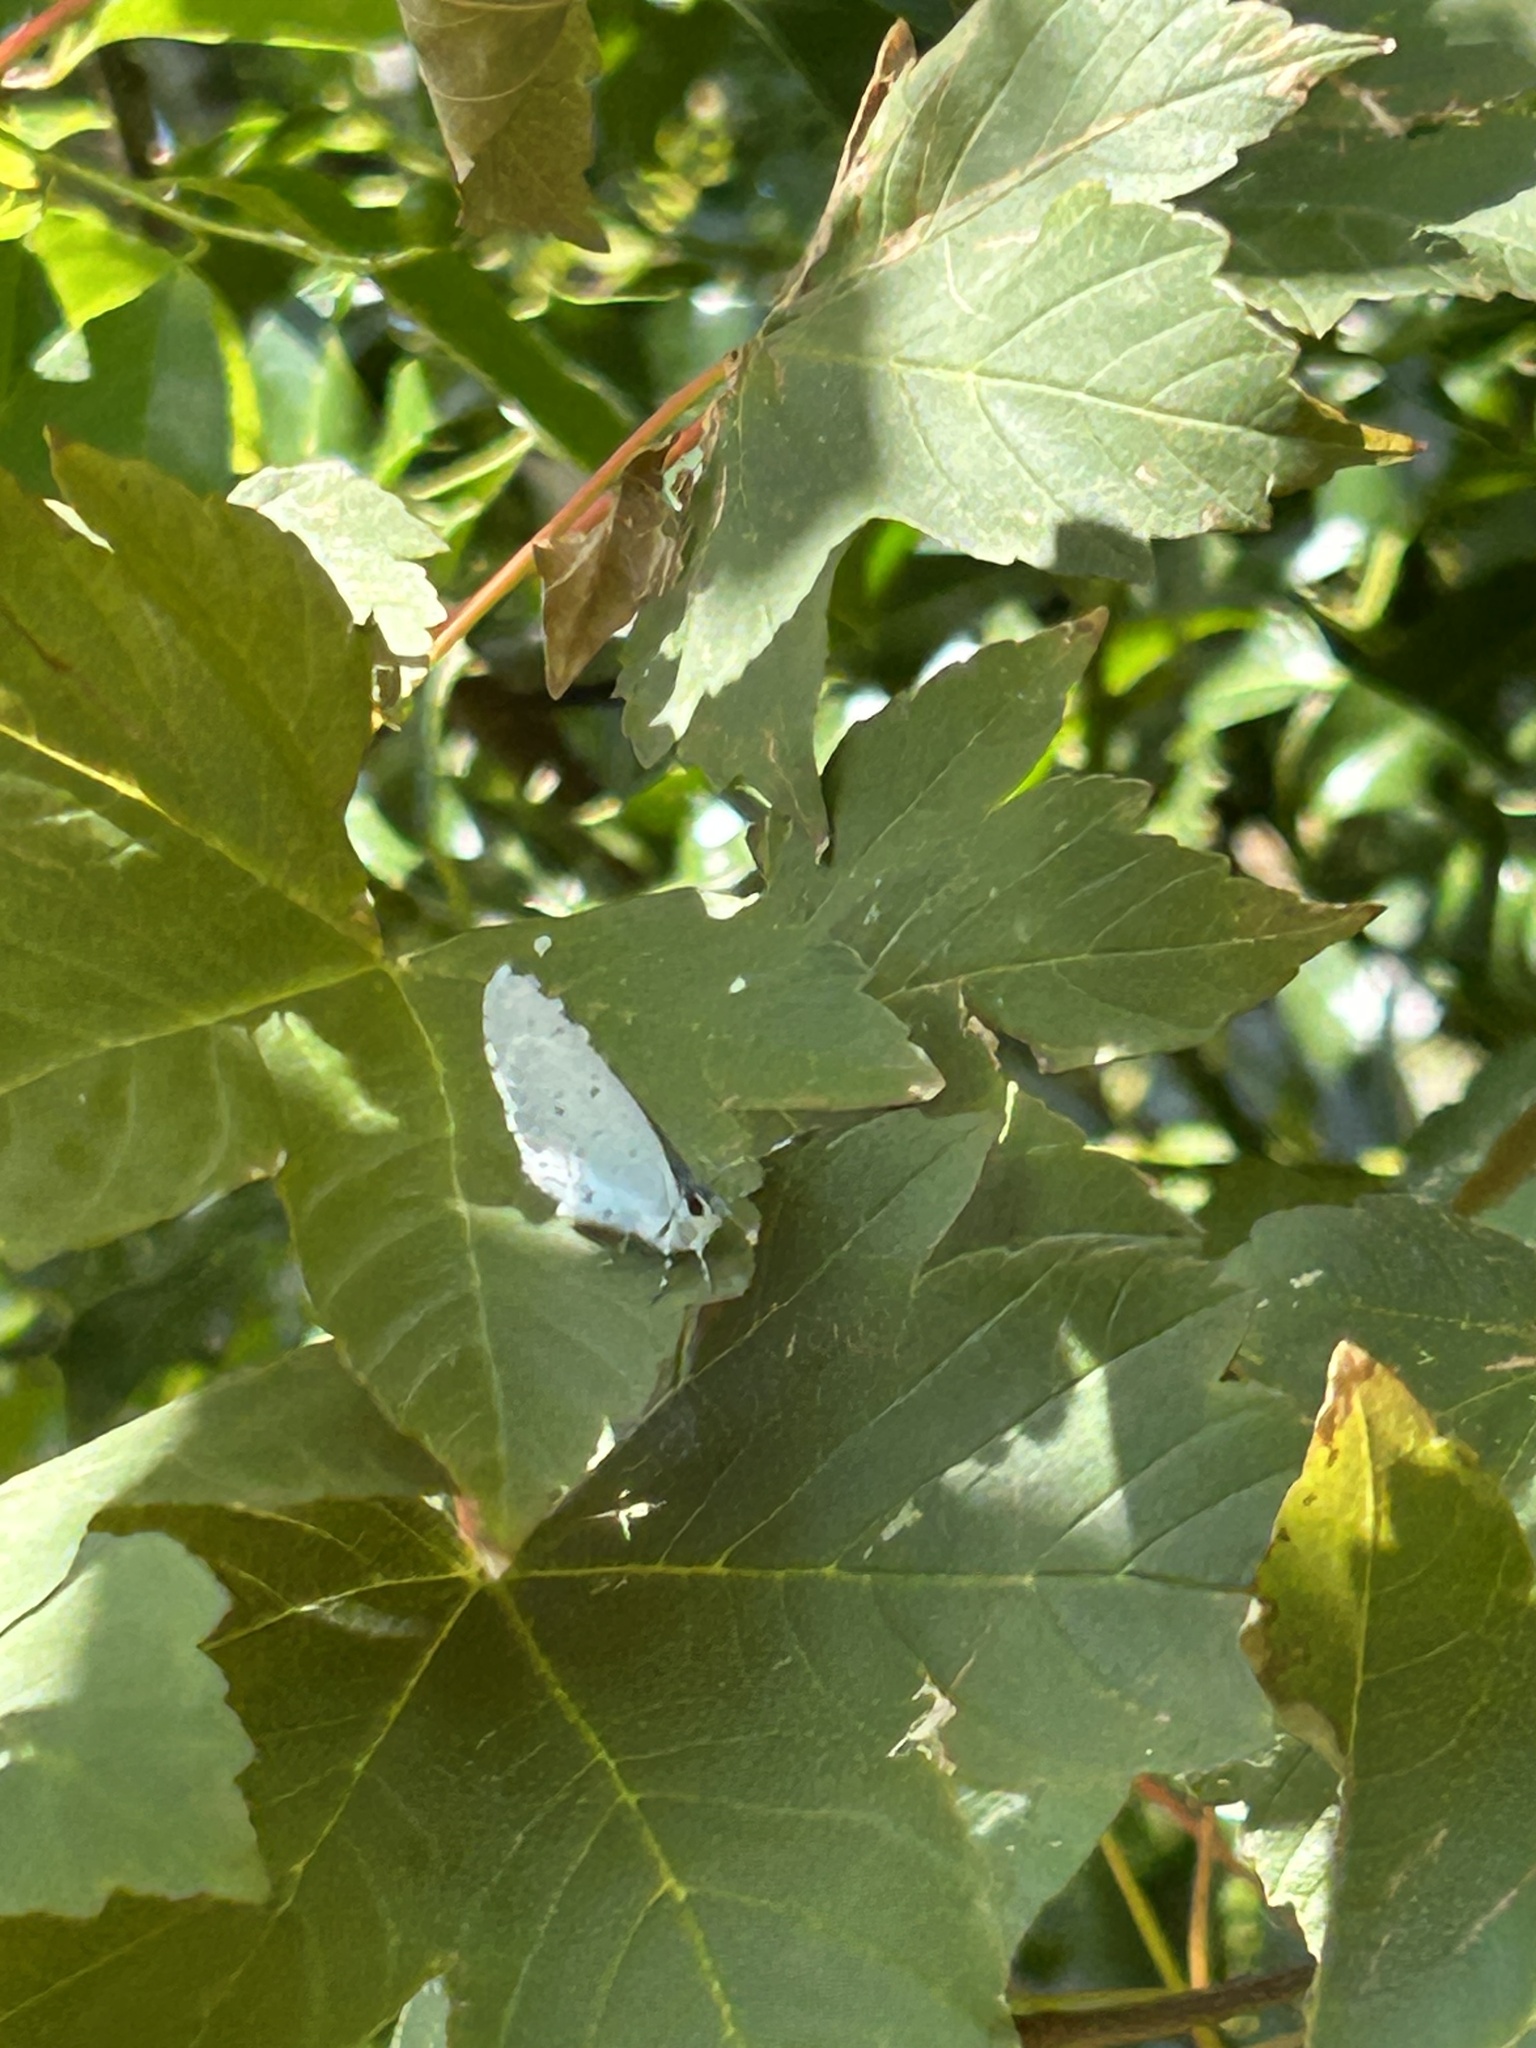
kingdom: Animalia
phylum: Arthropoda
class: Insecta
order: Lepidoptera
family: Lycaenidae
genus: Celastrina
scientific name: Celastrina argiolus
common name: Holly blue
